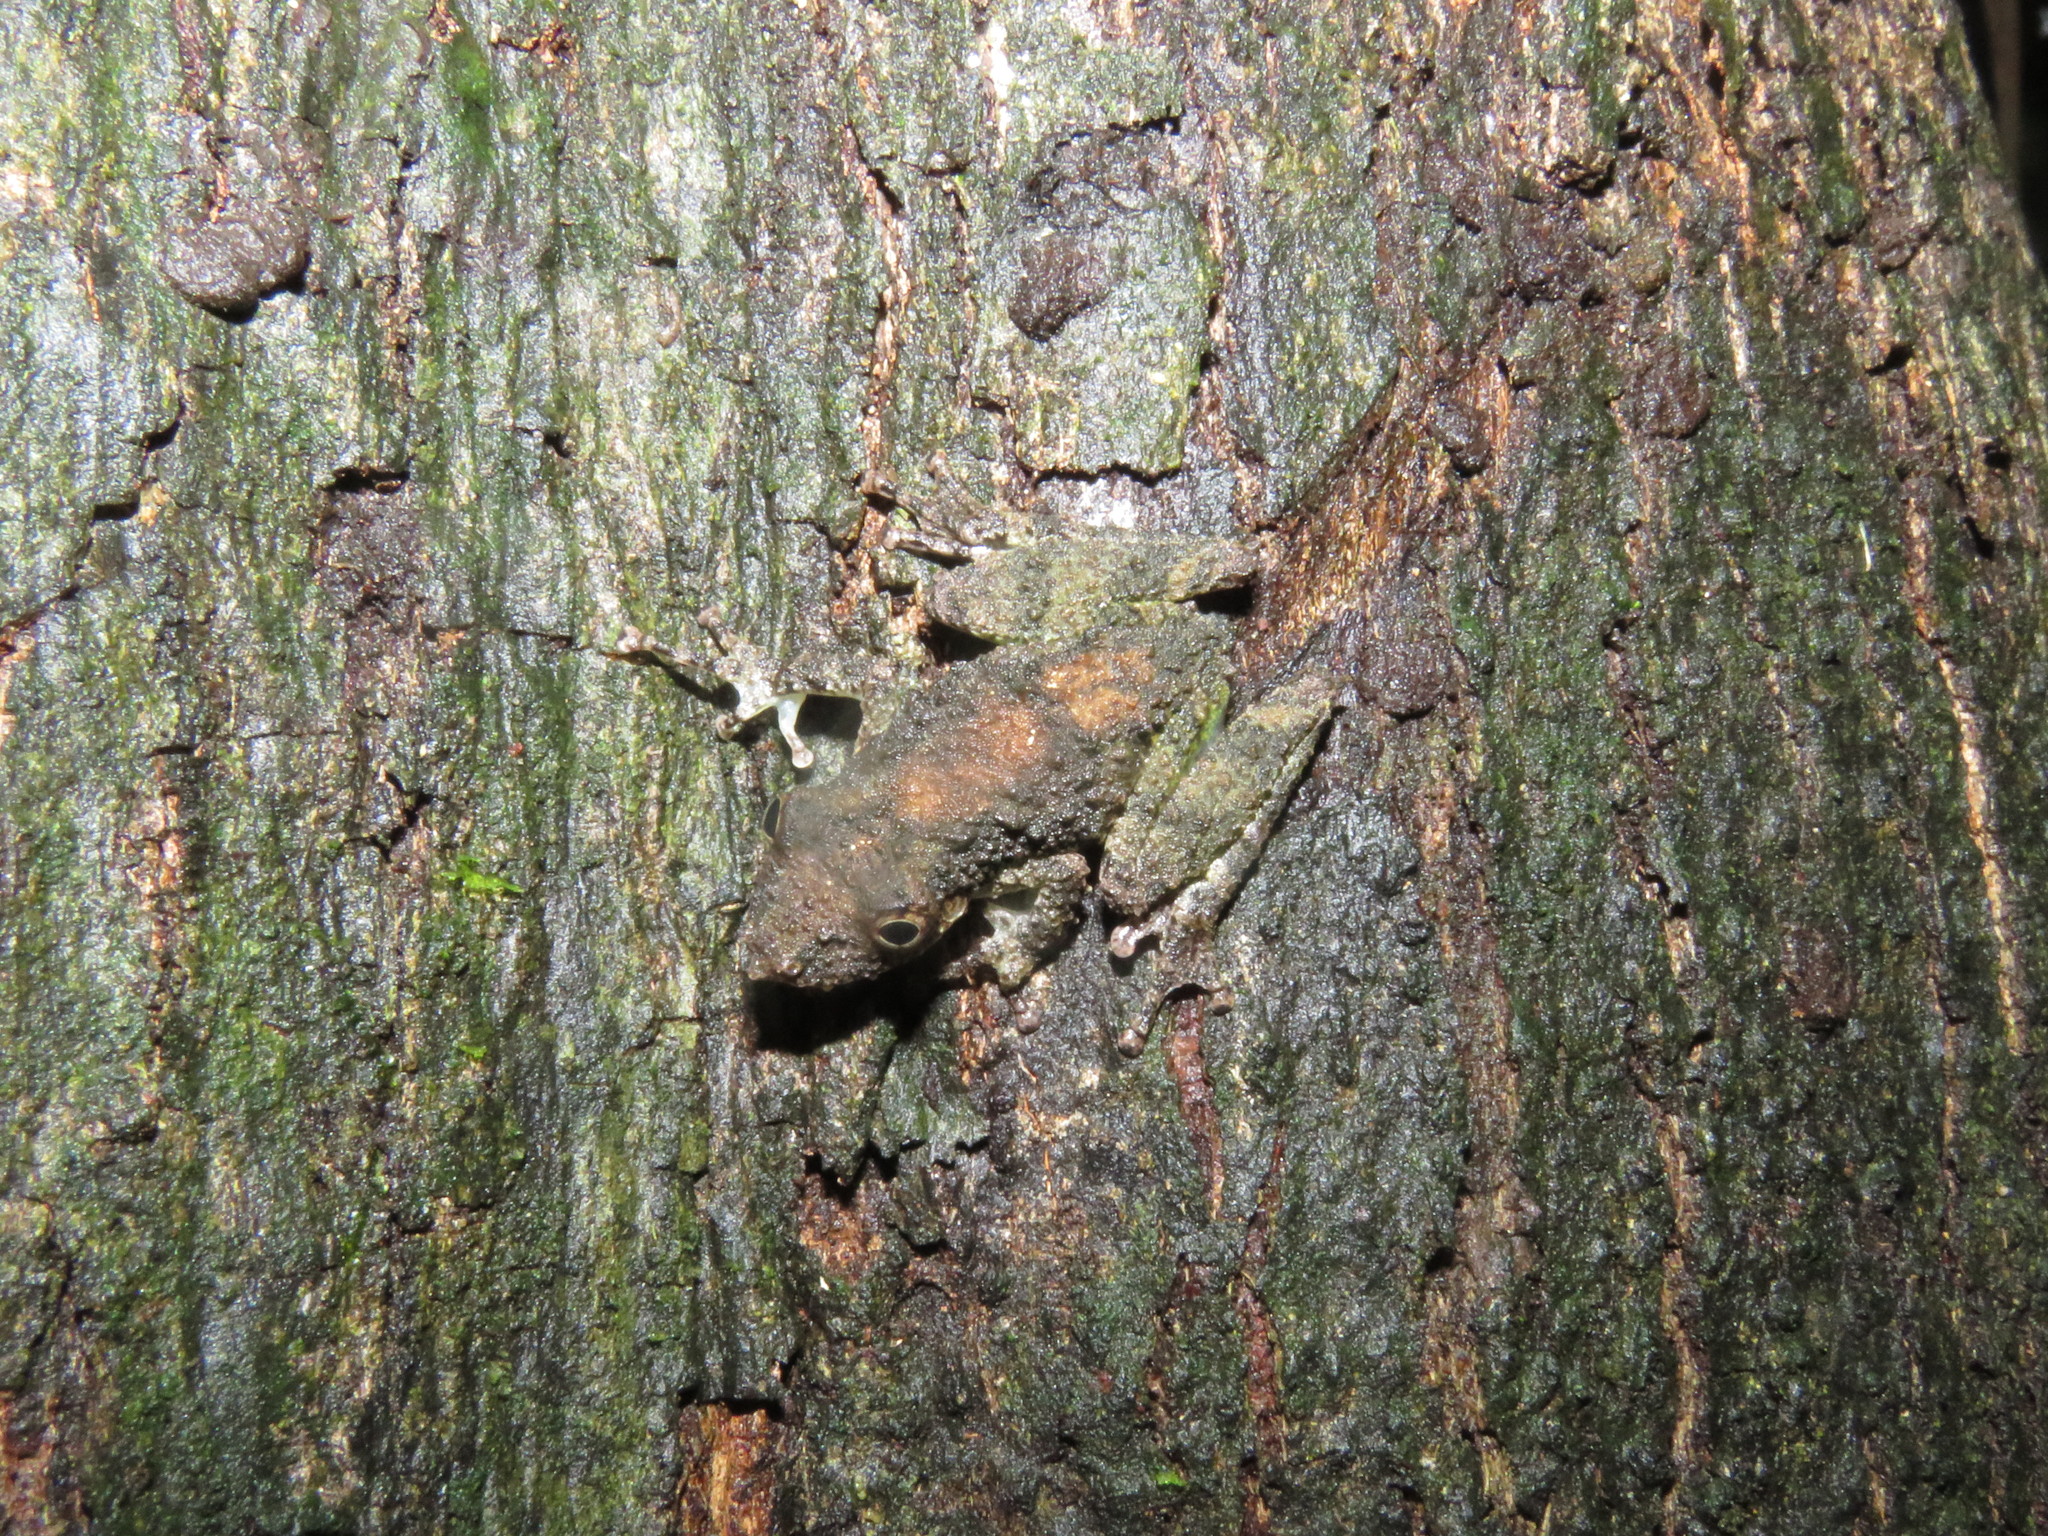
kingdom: Animalia
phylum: Chordata
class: Amphibia
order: Anura
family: Hylidae
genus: Scinax
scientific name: Scinax garbei
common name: Eirunepe snouted treefrog
